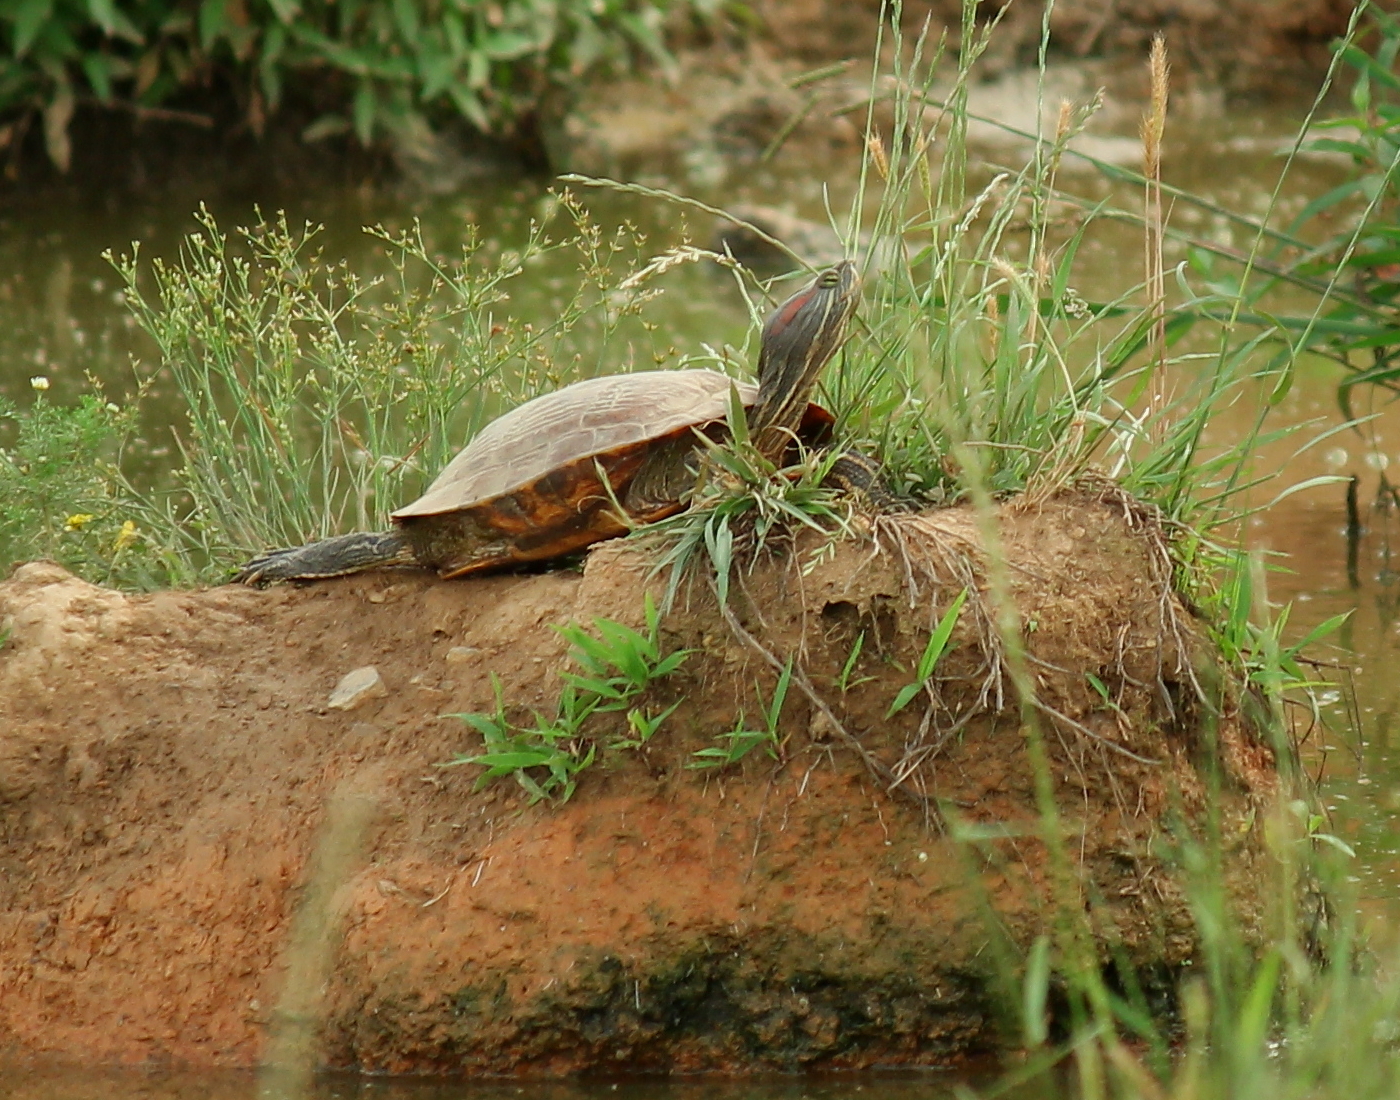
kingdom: Animalia
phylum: Chordata
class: Testudines
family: Emydidae
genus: Trachemys
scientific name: Trachemys scripta
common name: Slider
